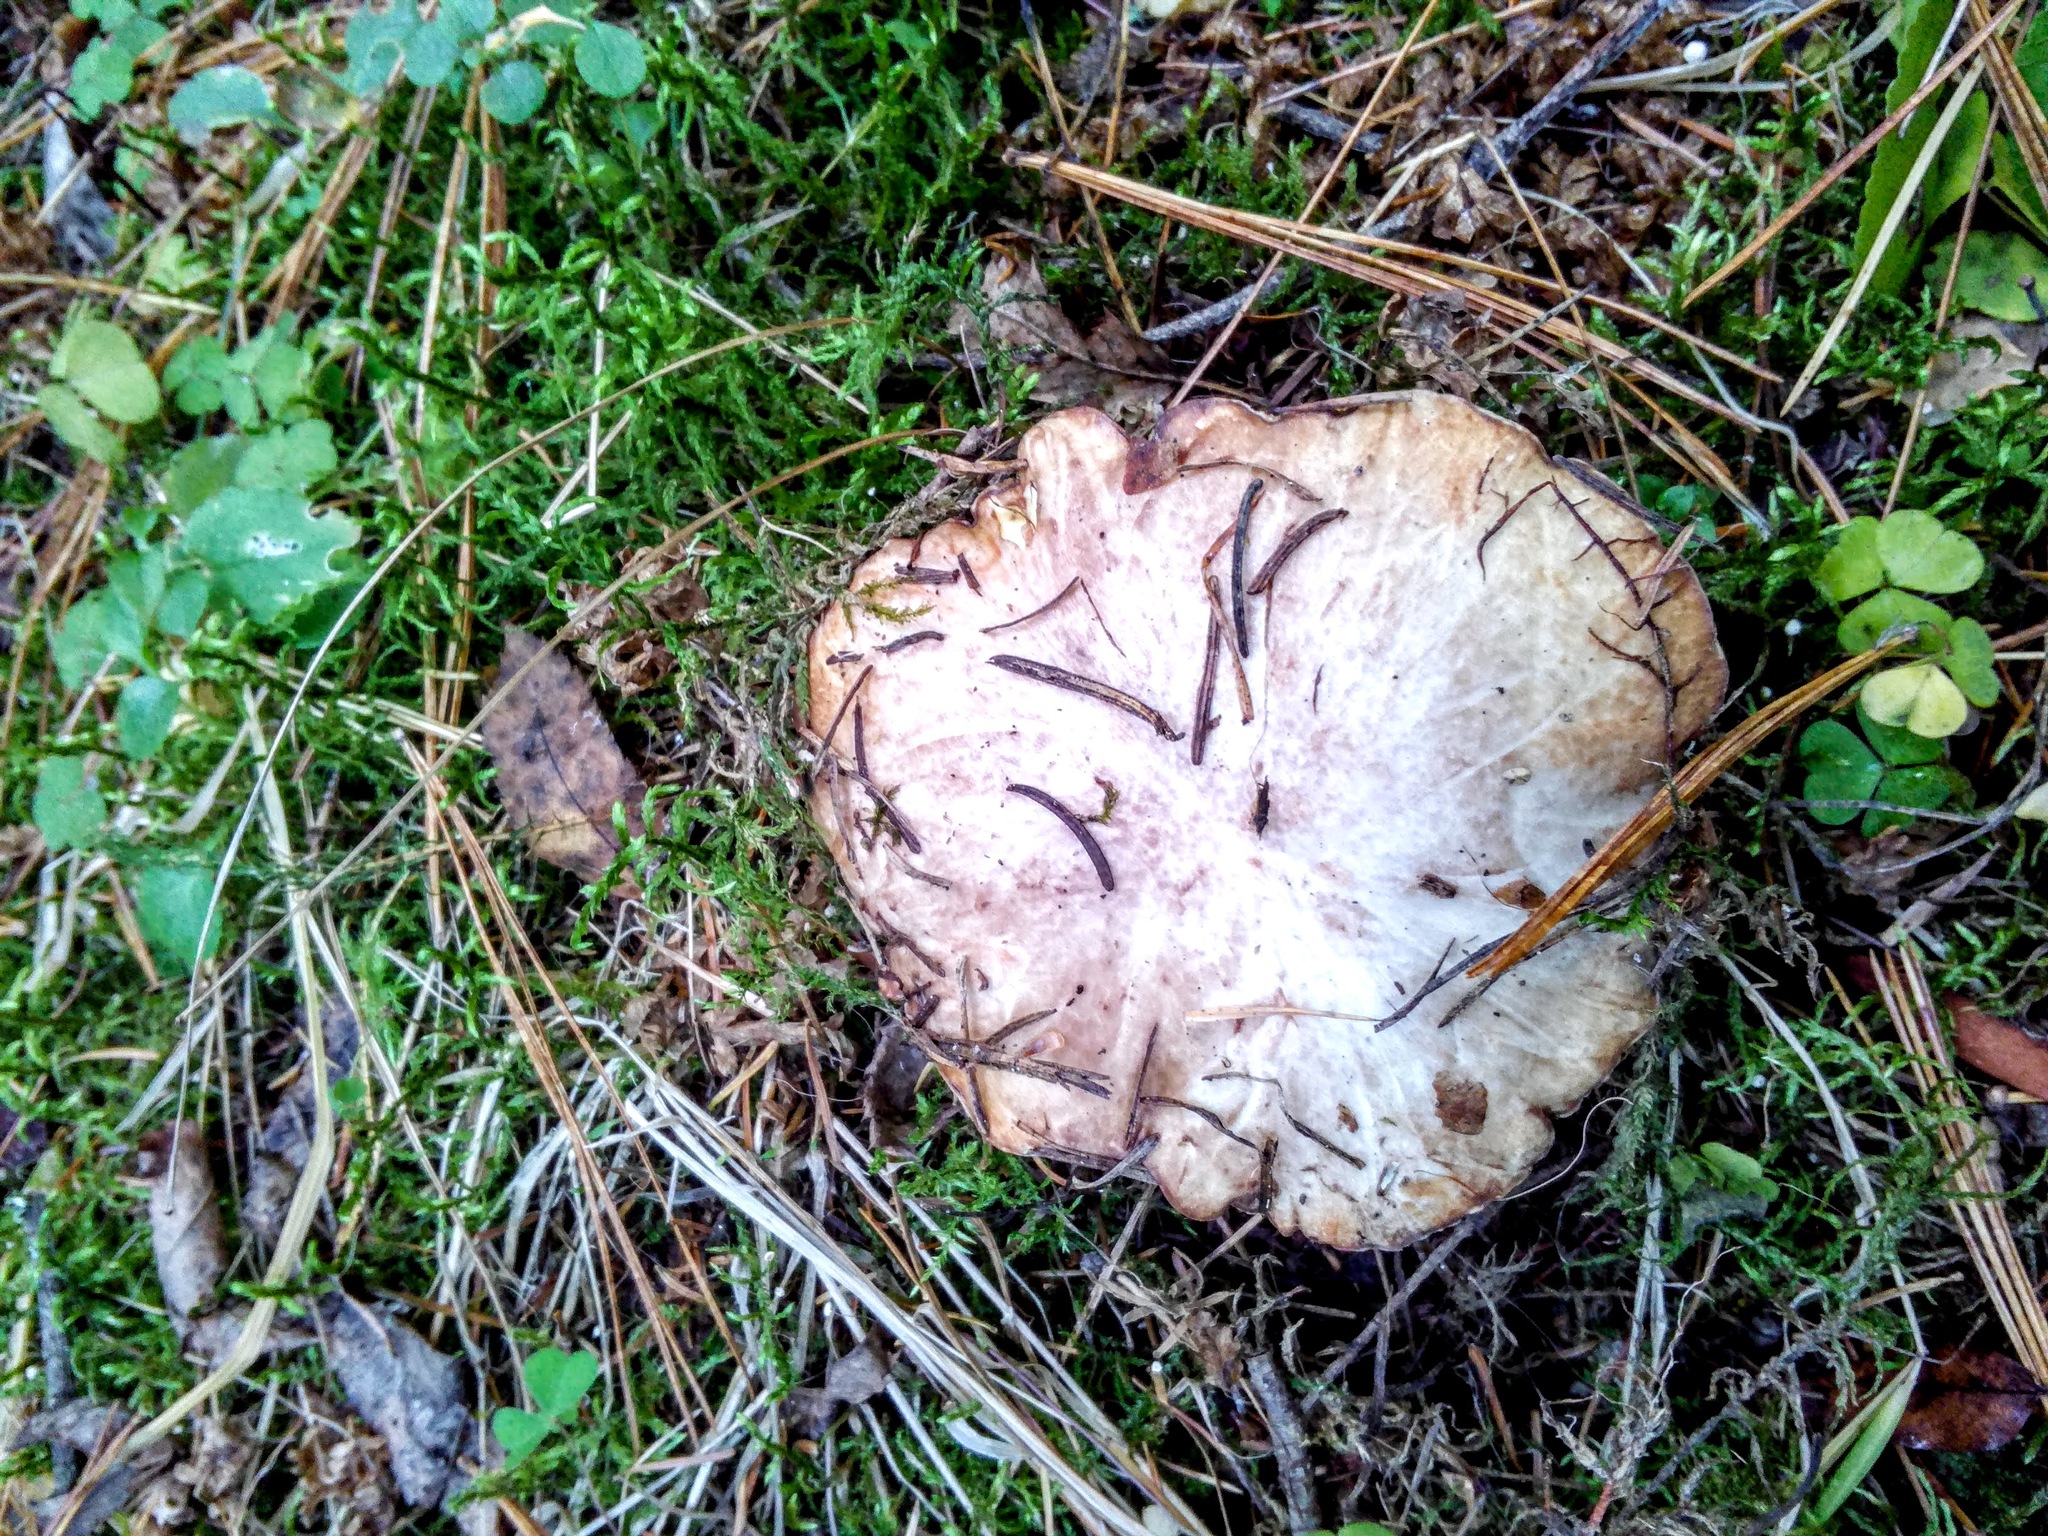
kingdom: Fungi
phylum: Basidiomycota
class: Agaricomycetes
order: Boletales
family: Suillaceae
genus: Suillus
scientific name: Suillus placidus
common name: Slippery white bolete
